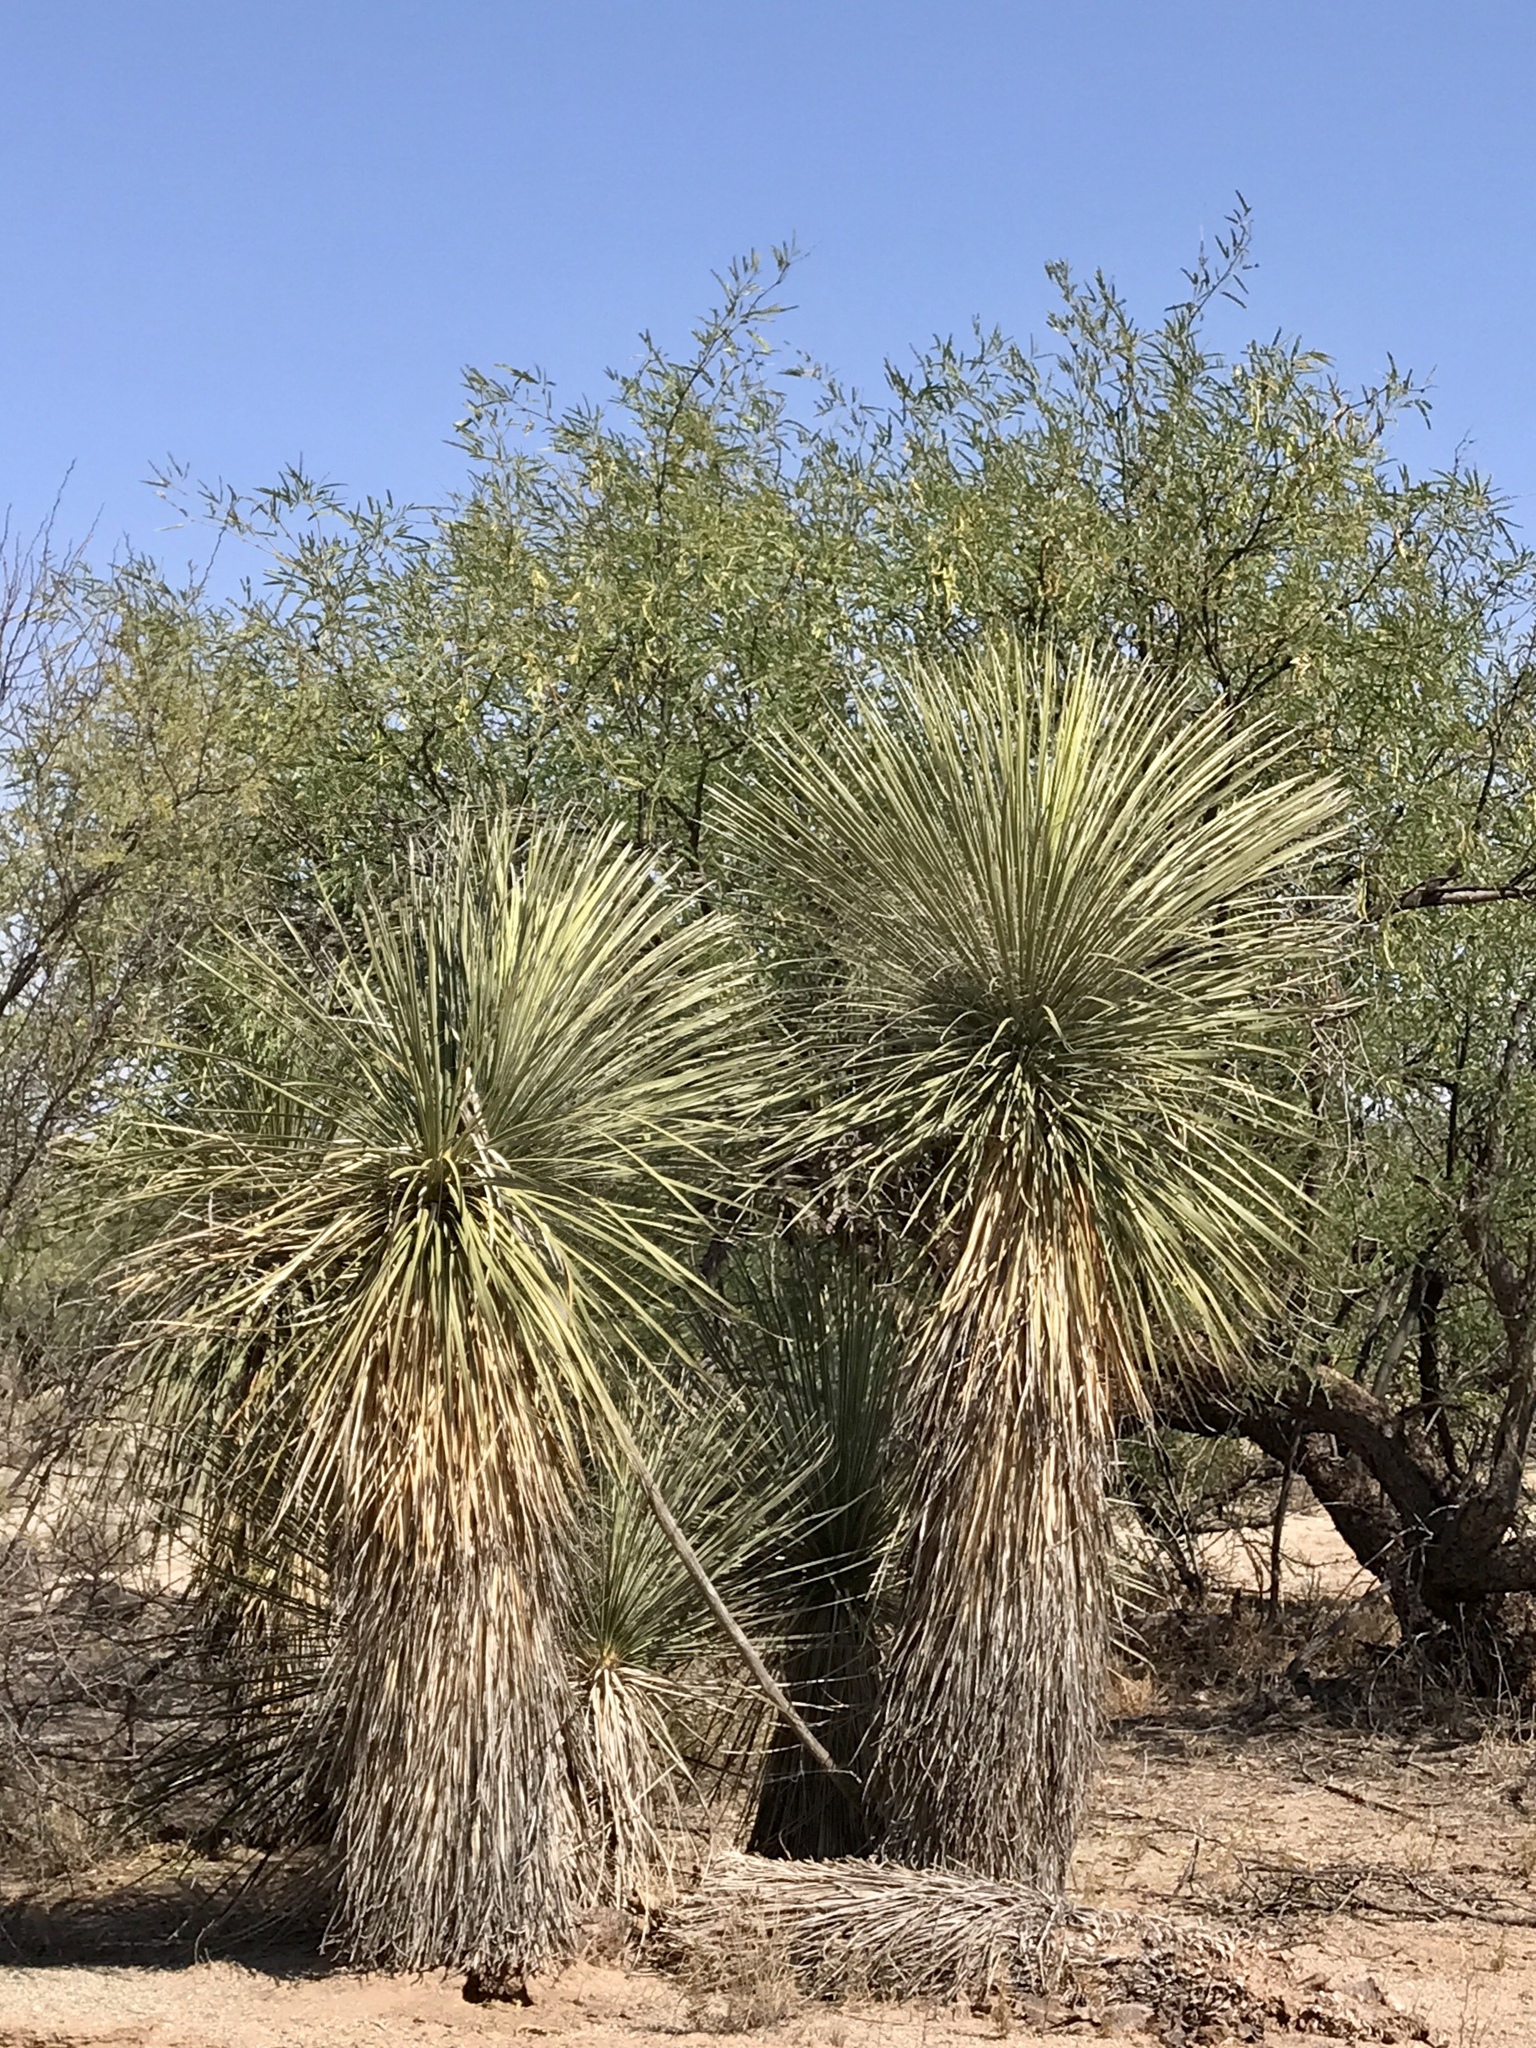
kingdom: Plantae
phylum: Tracheophyta
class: Liliopsida
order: Asparagales
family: Asparagaceae
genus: Yucca
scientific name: Yucca elata
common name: Palmella
